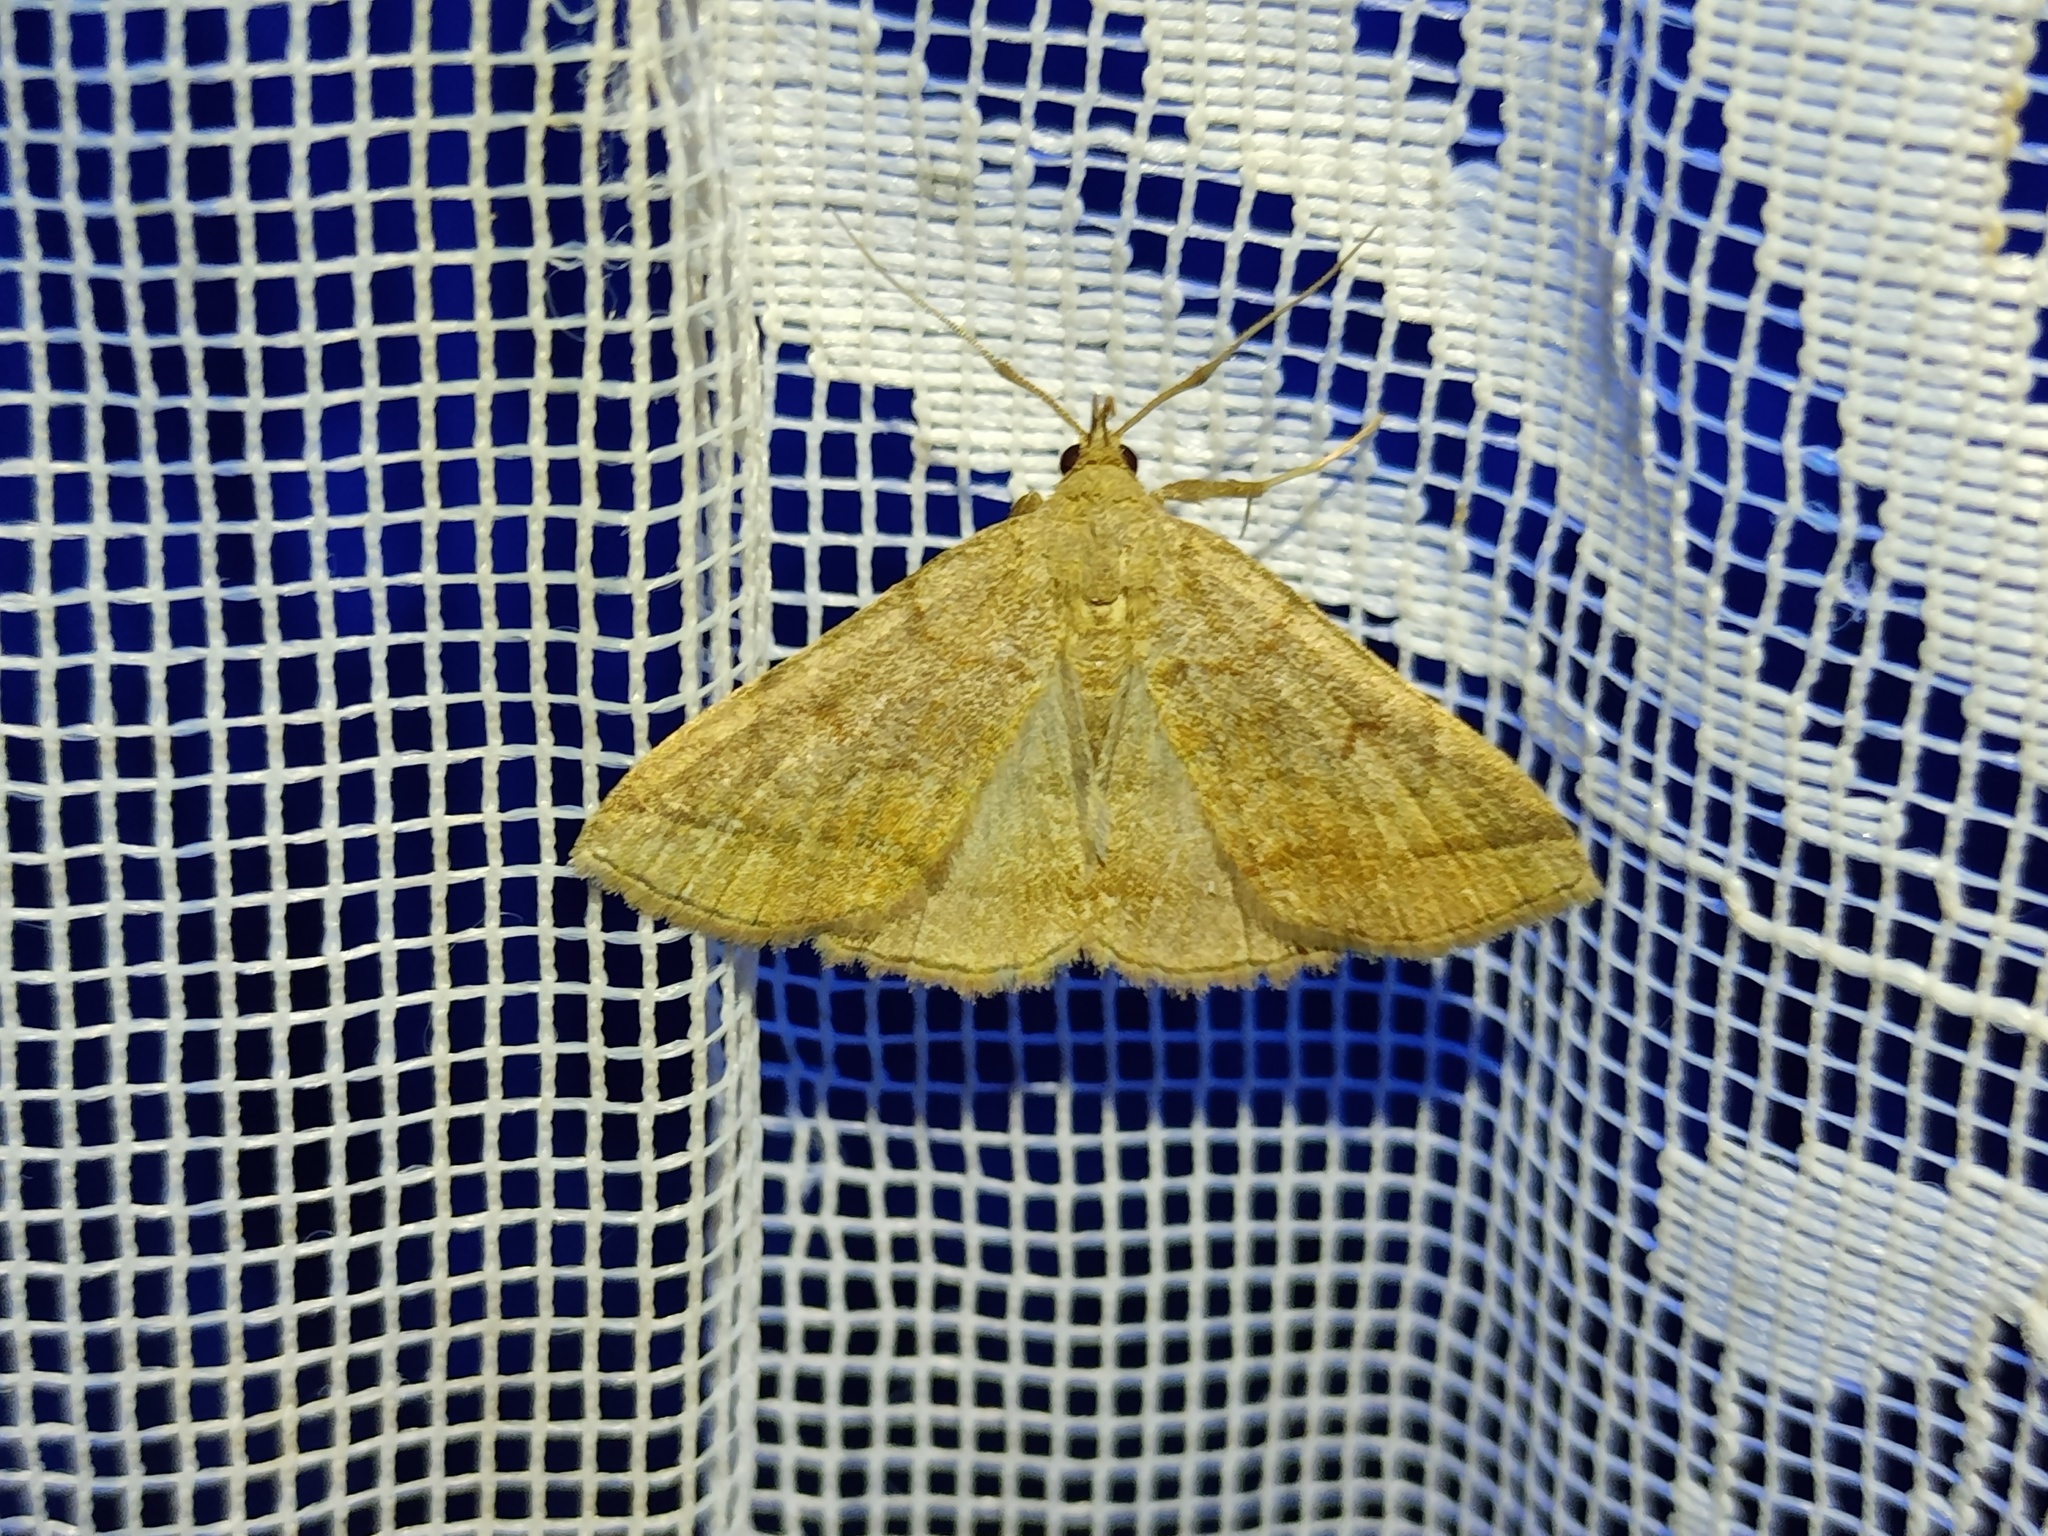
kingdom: Animalia
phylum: Arthropoda
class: Insecta
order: Lepidoptera
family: Erebidae
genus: Zanclognatha
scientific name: Zanclognatha lunalis
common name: Jubilee fan-foot
